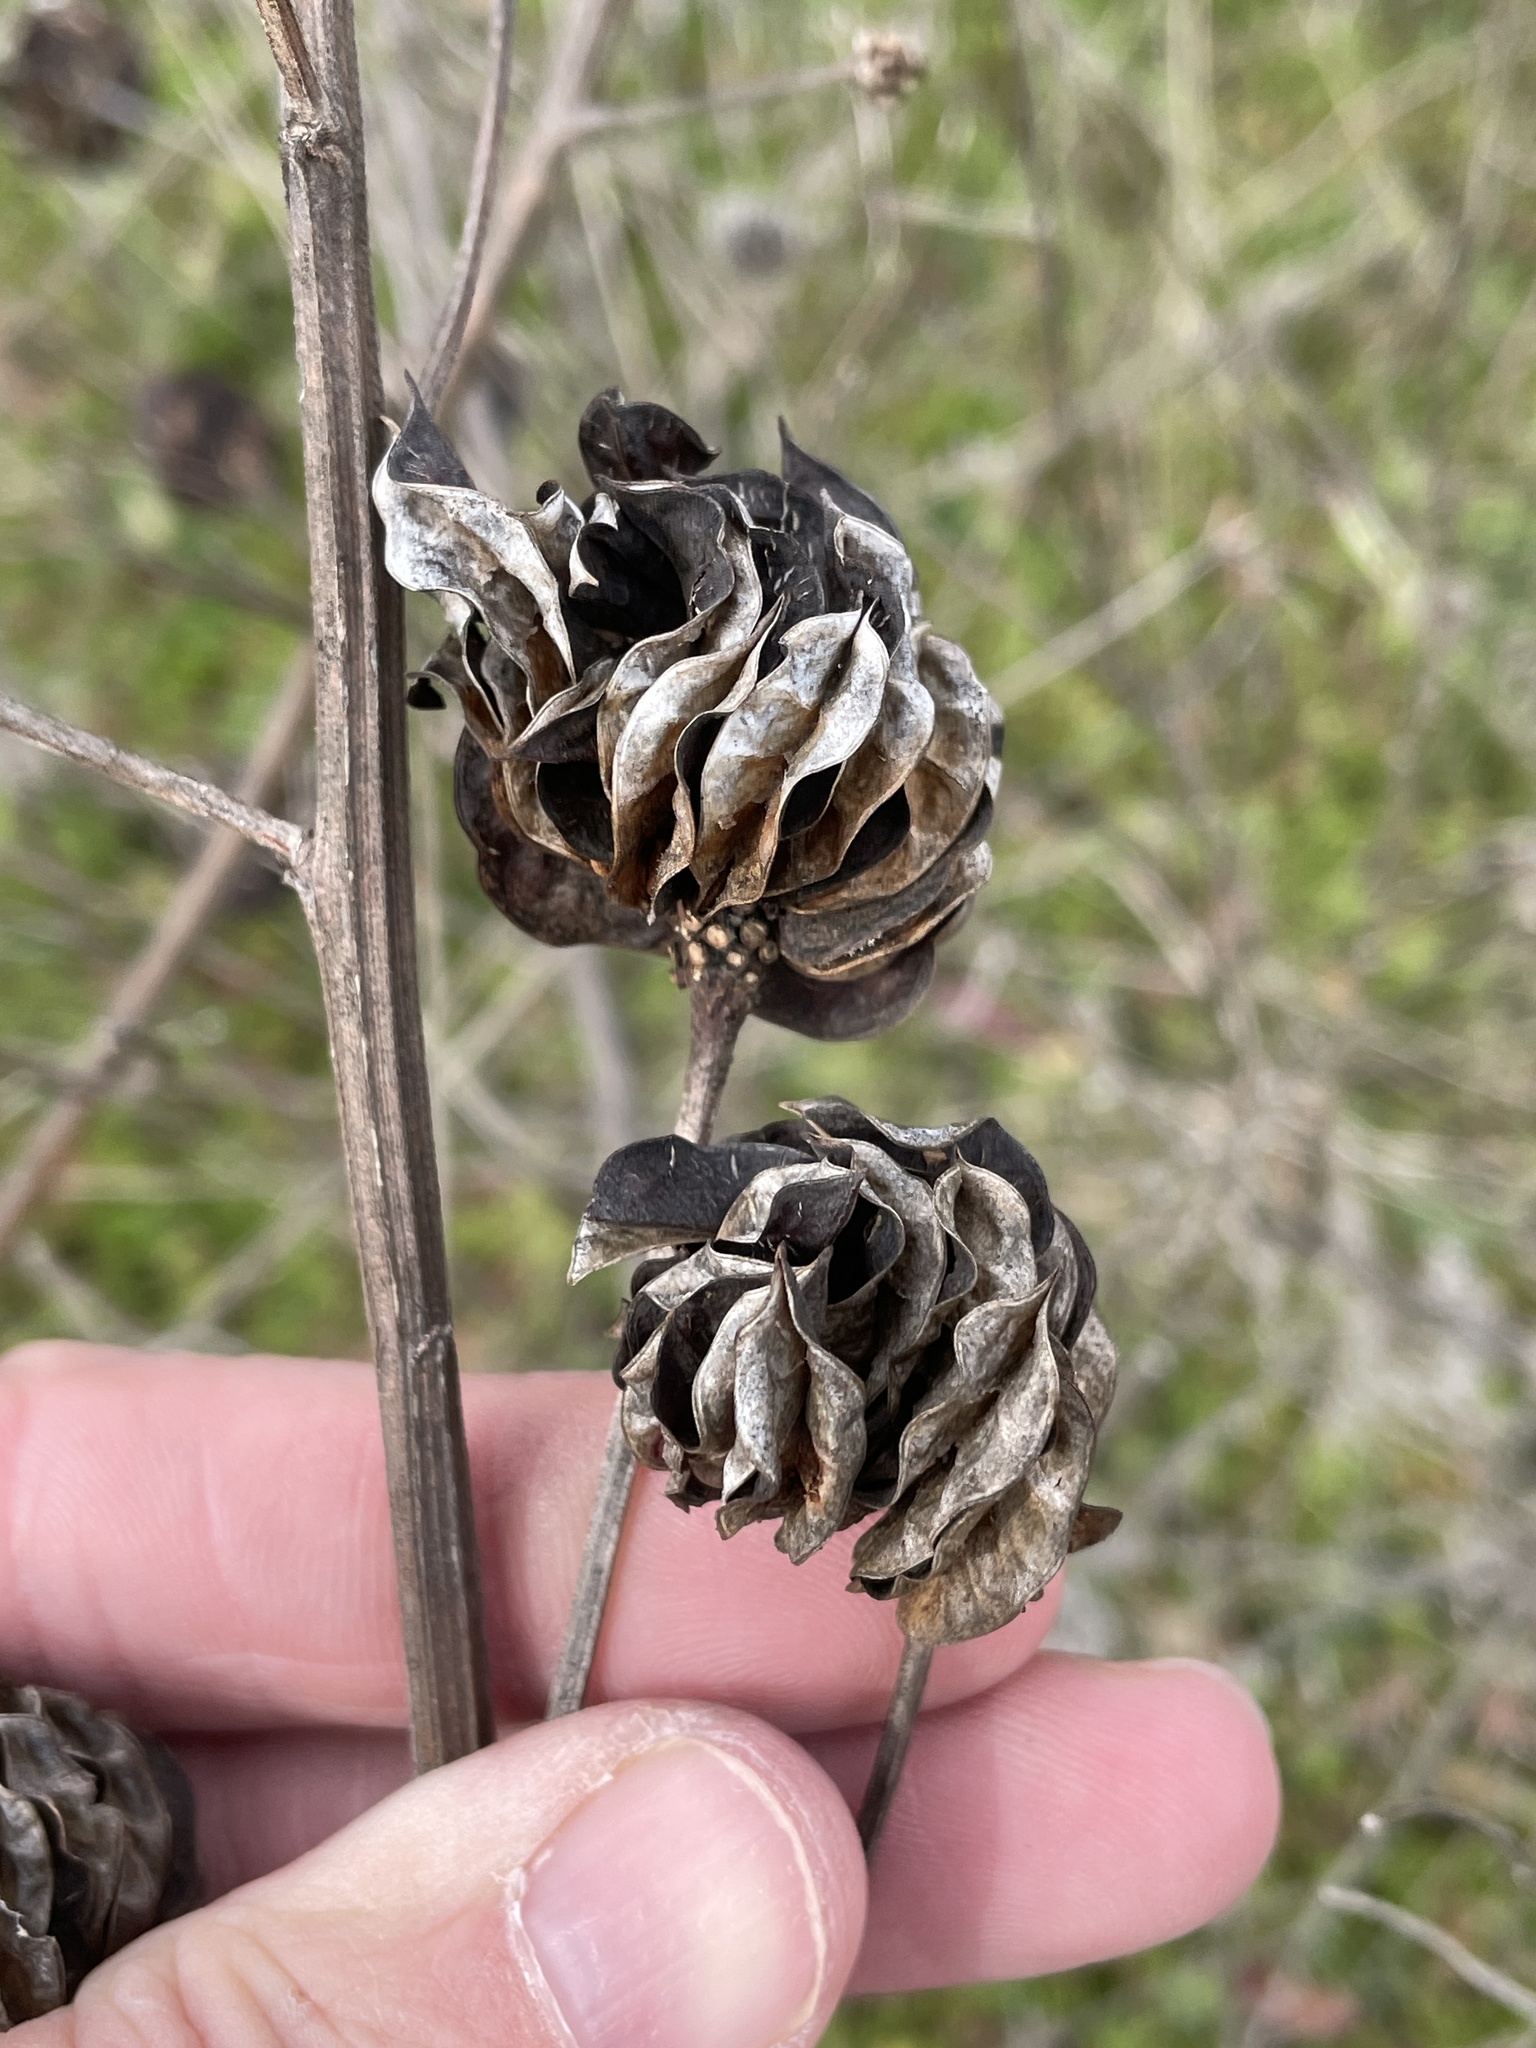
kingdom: Plantae
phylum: Tracheophyta
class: Magnoliopsida
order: Fabales
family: Fabaceae
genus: Desmanthus
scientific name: Desmanthus illinoensis
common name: Illinois bundle-flower
